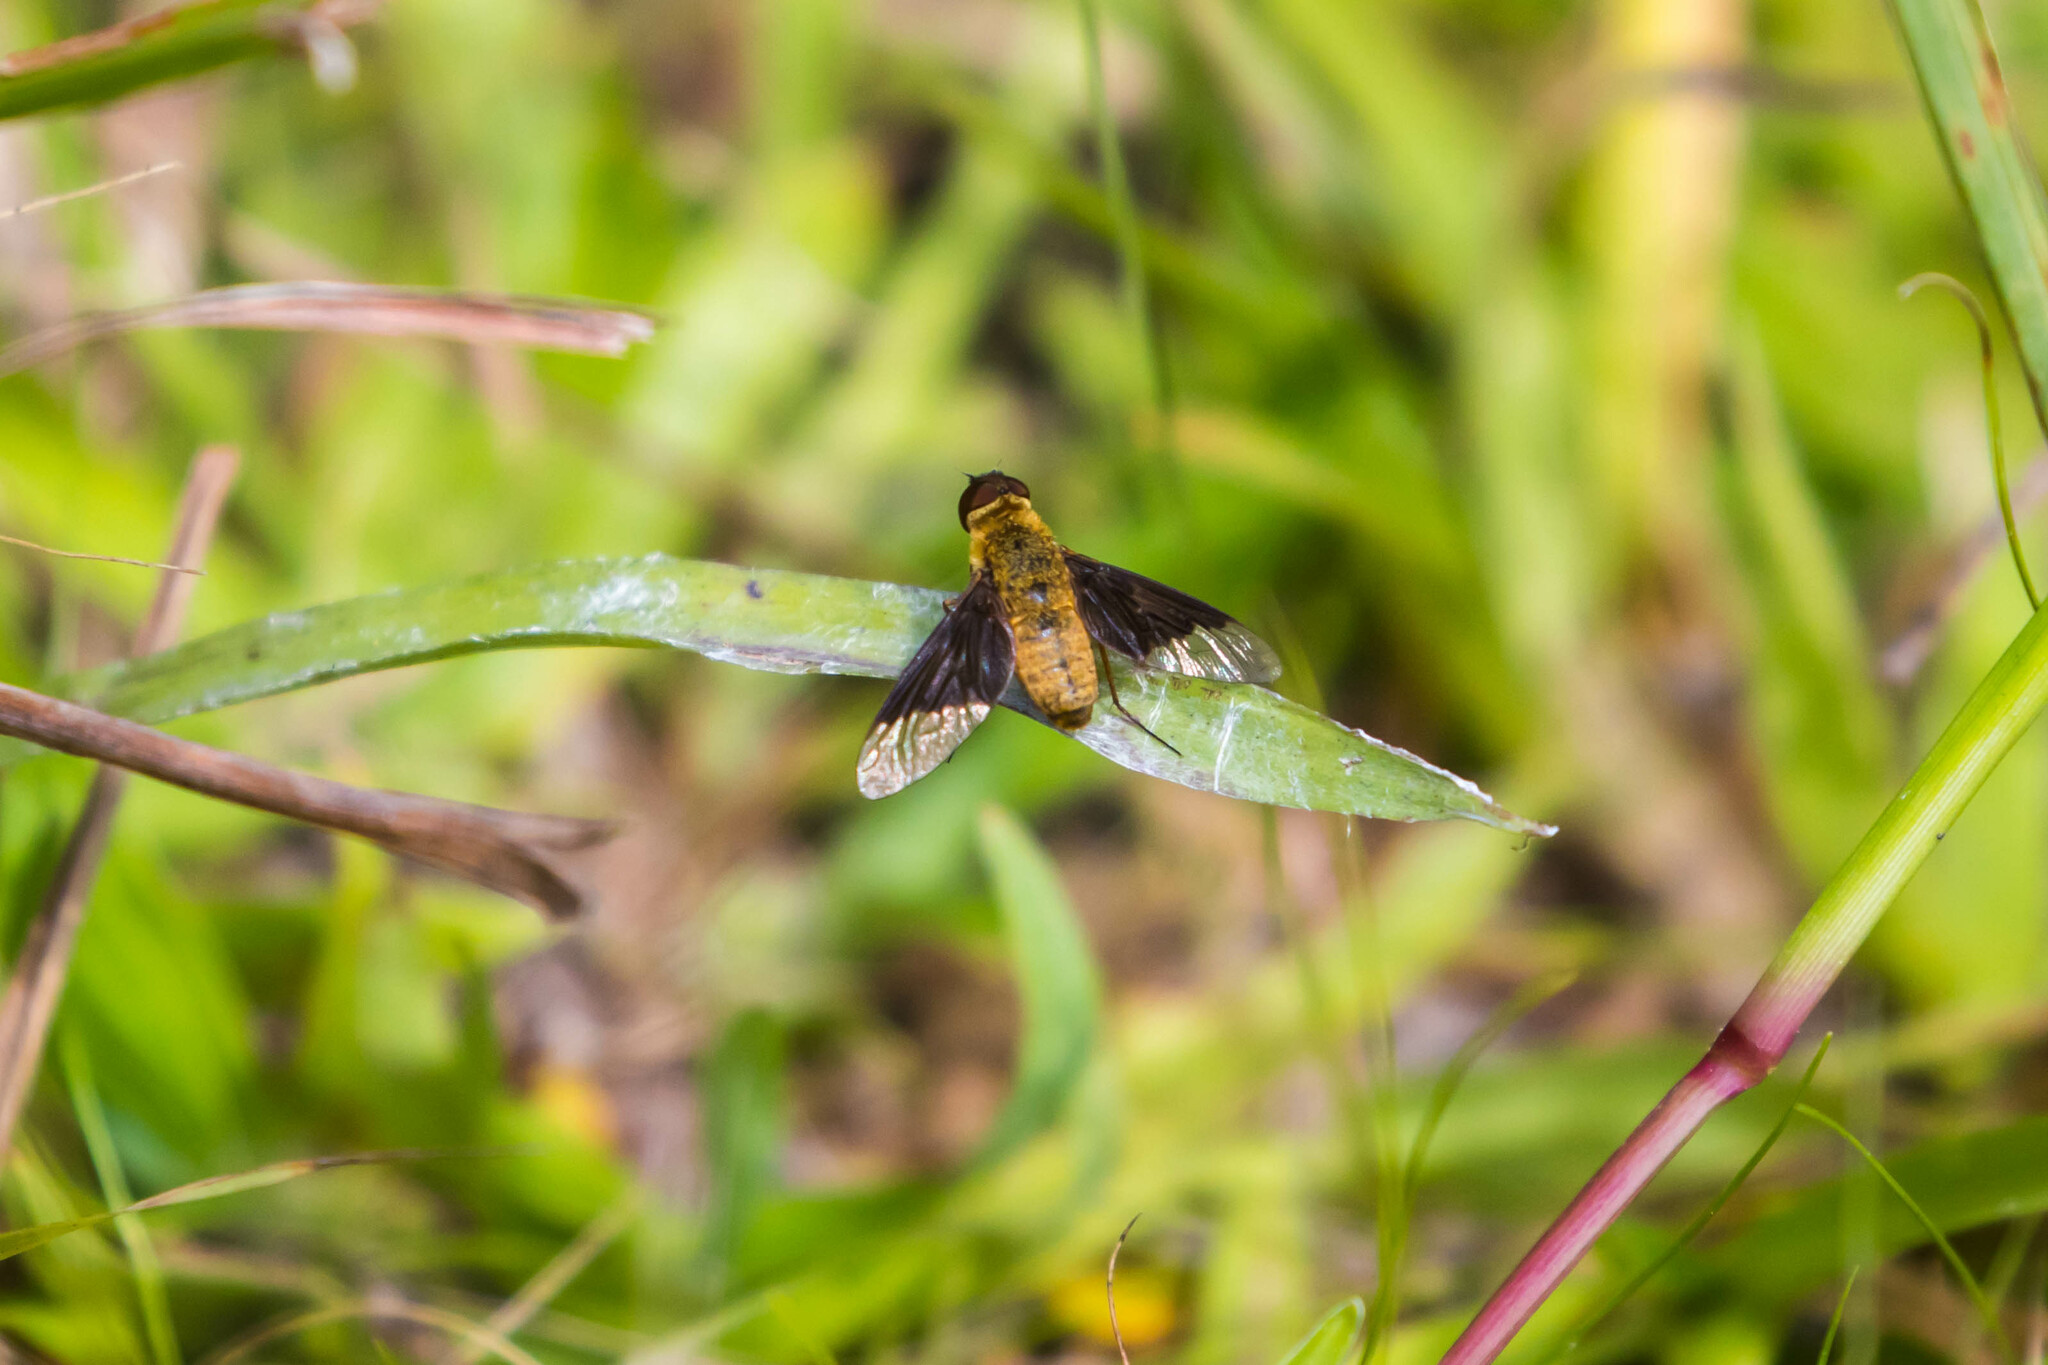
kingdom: Animalia
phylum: Arthropoda
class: Insecta
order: Diptera
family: Bombyliidae
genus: Chrysanthrax
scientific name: Chrysanthrax cypris
